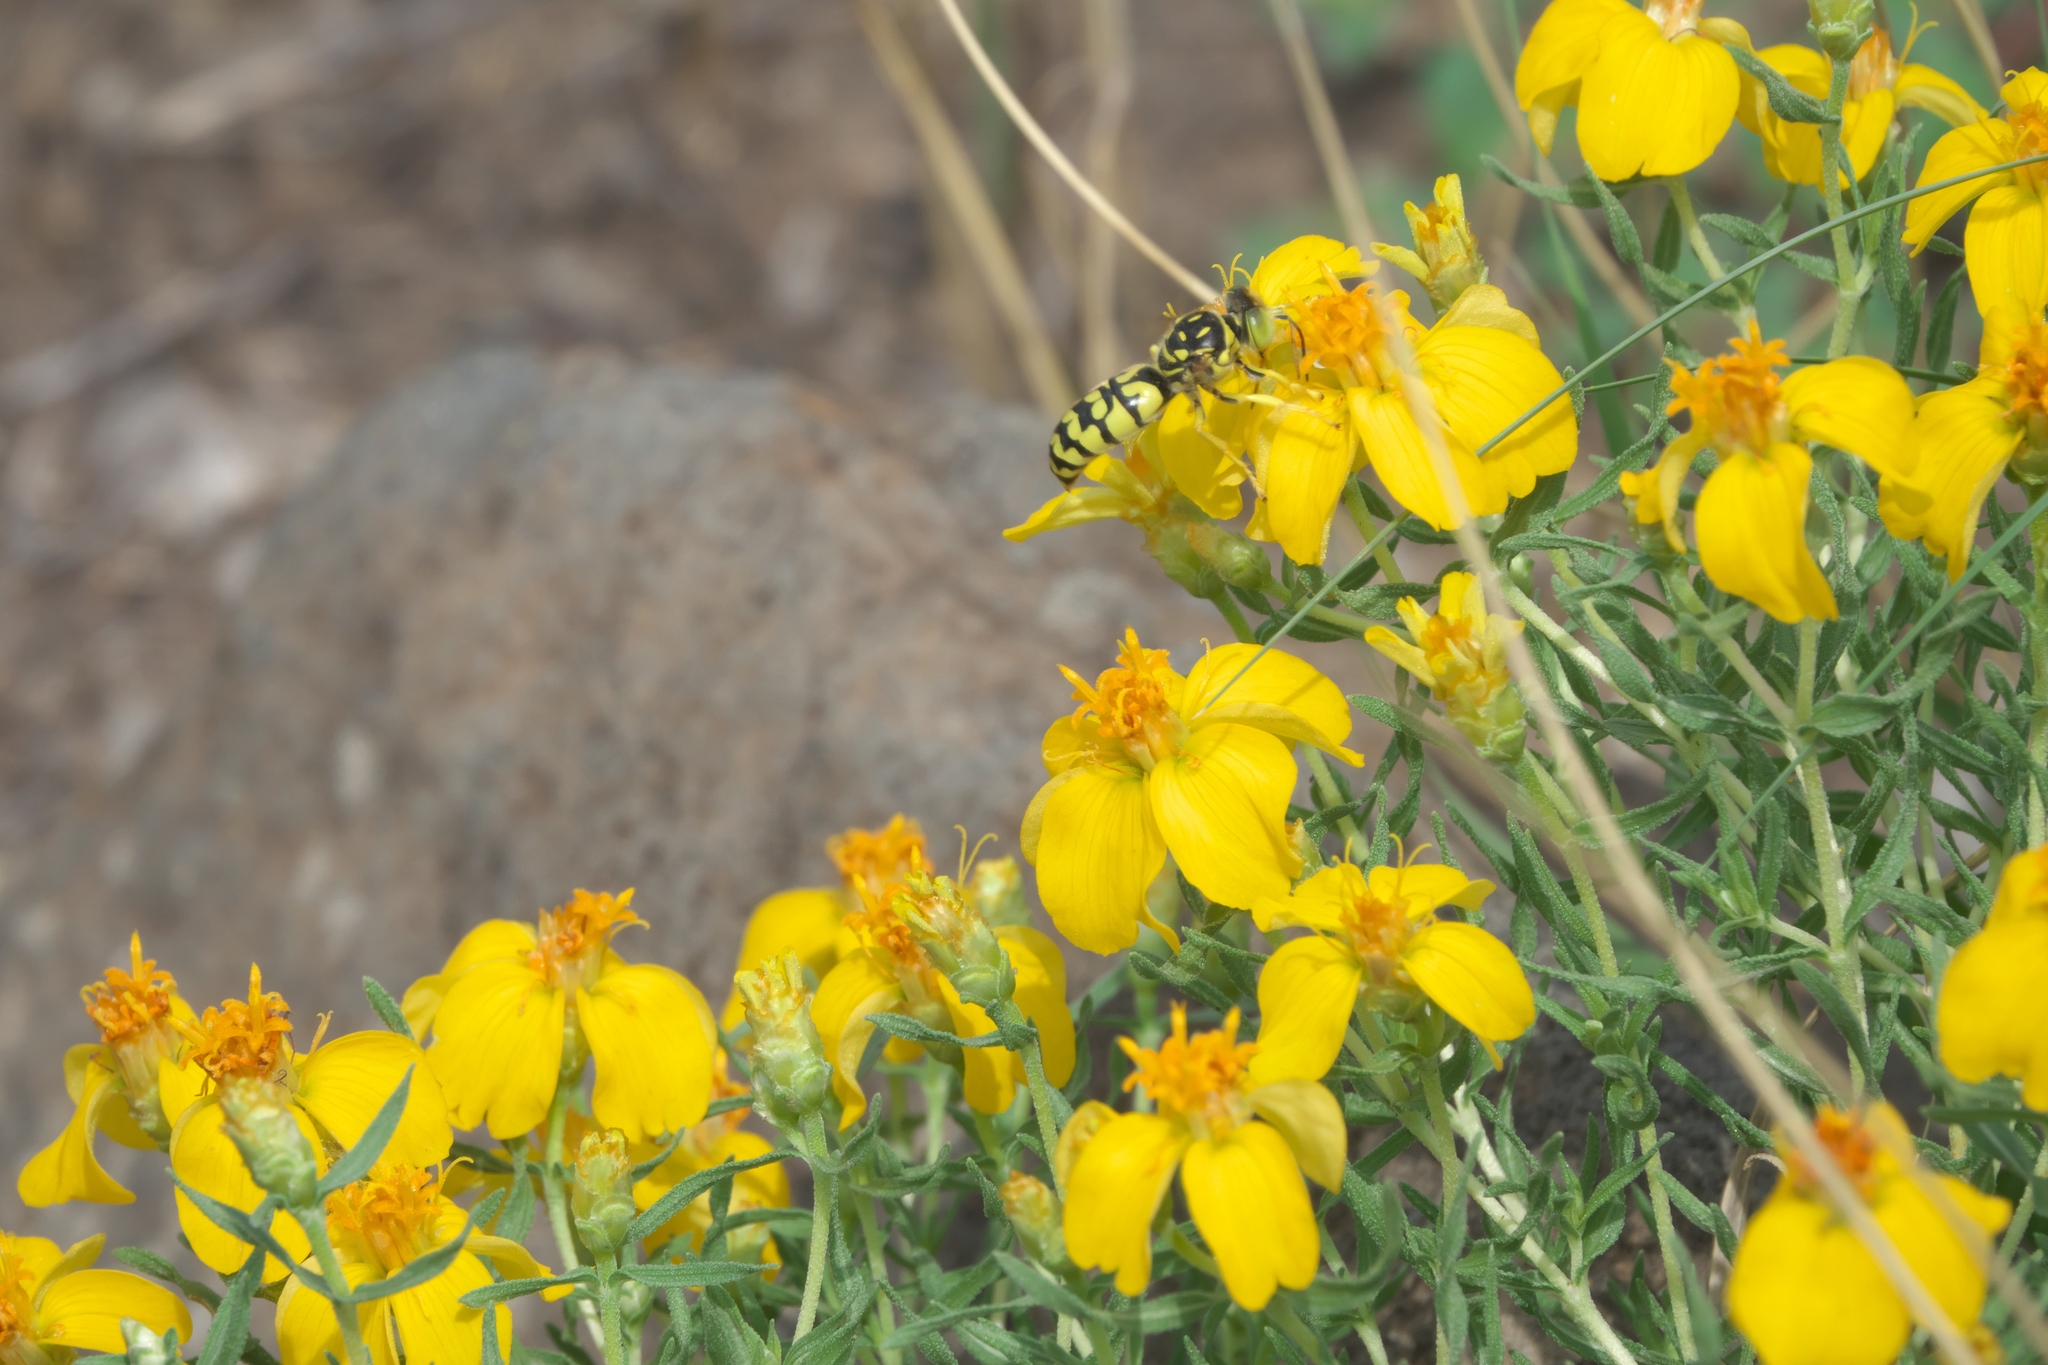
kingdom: Plantae
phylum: Tracheophyta
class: Magnoliopsida
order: Asterales
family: Asteraceae
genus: Zinnia
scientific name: Zinnia grandiflora
